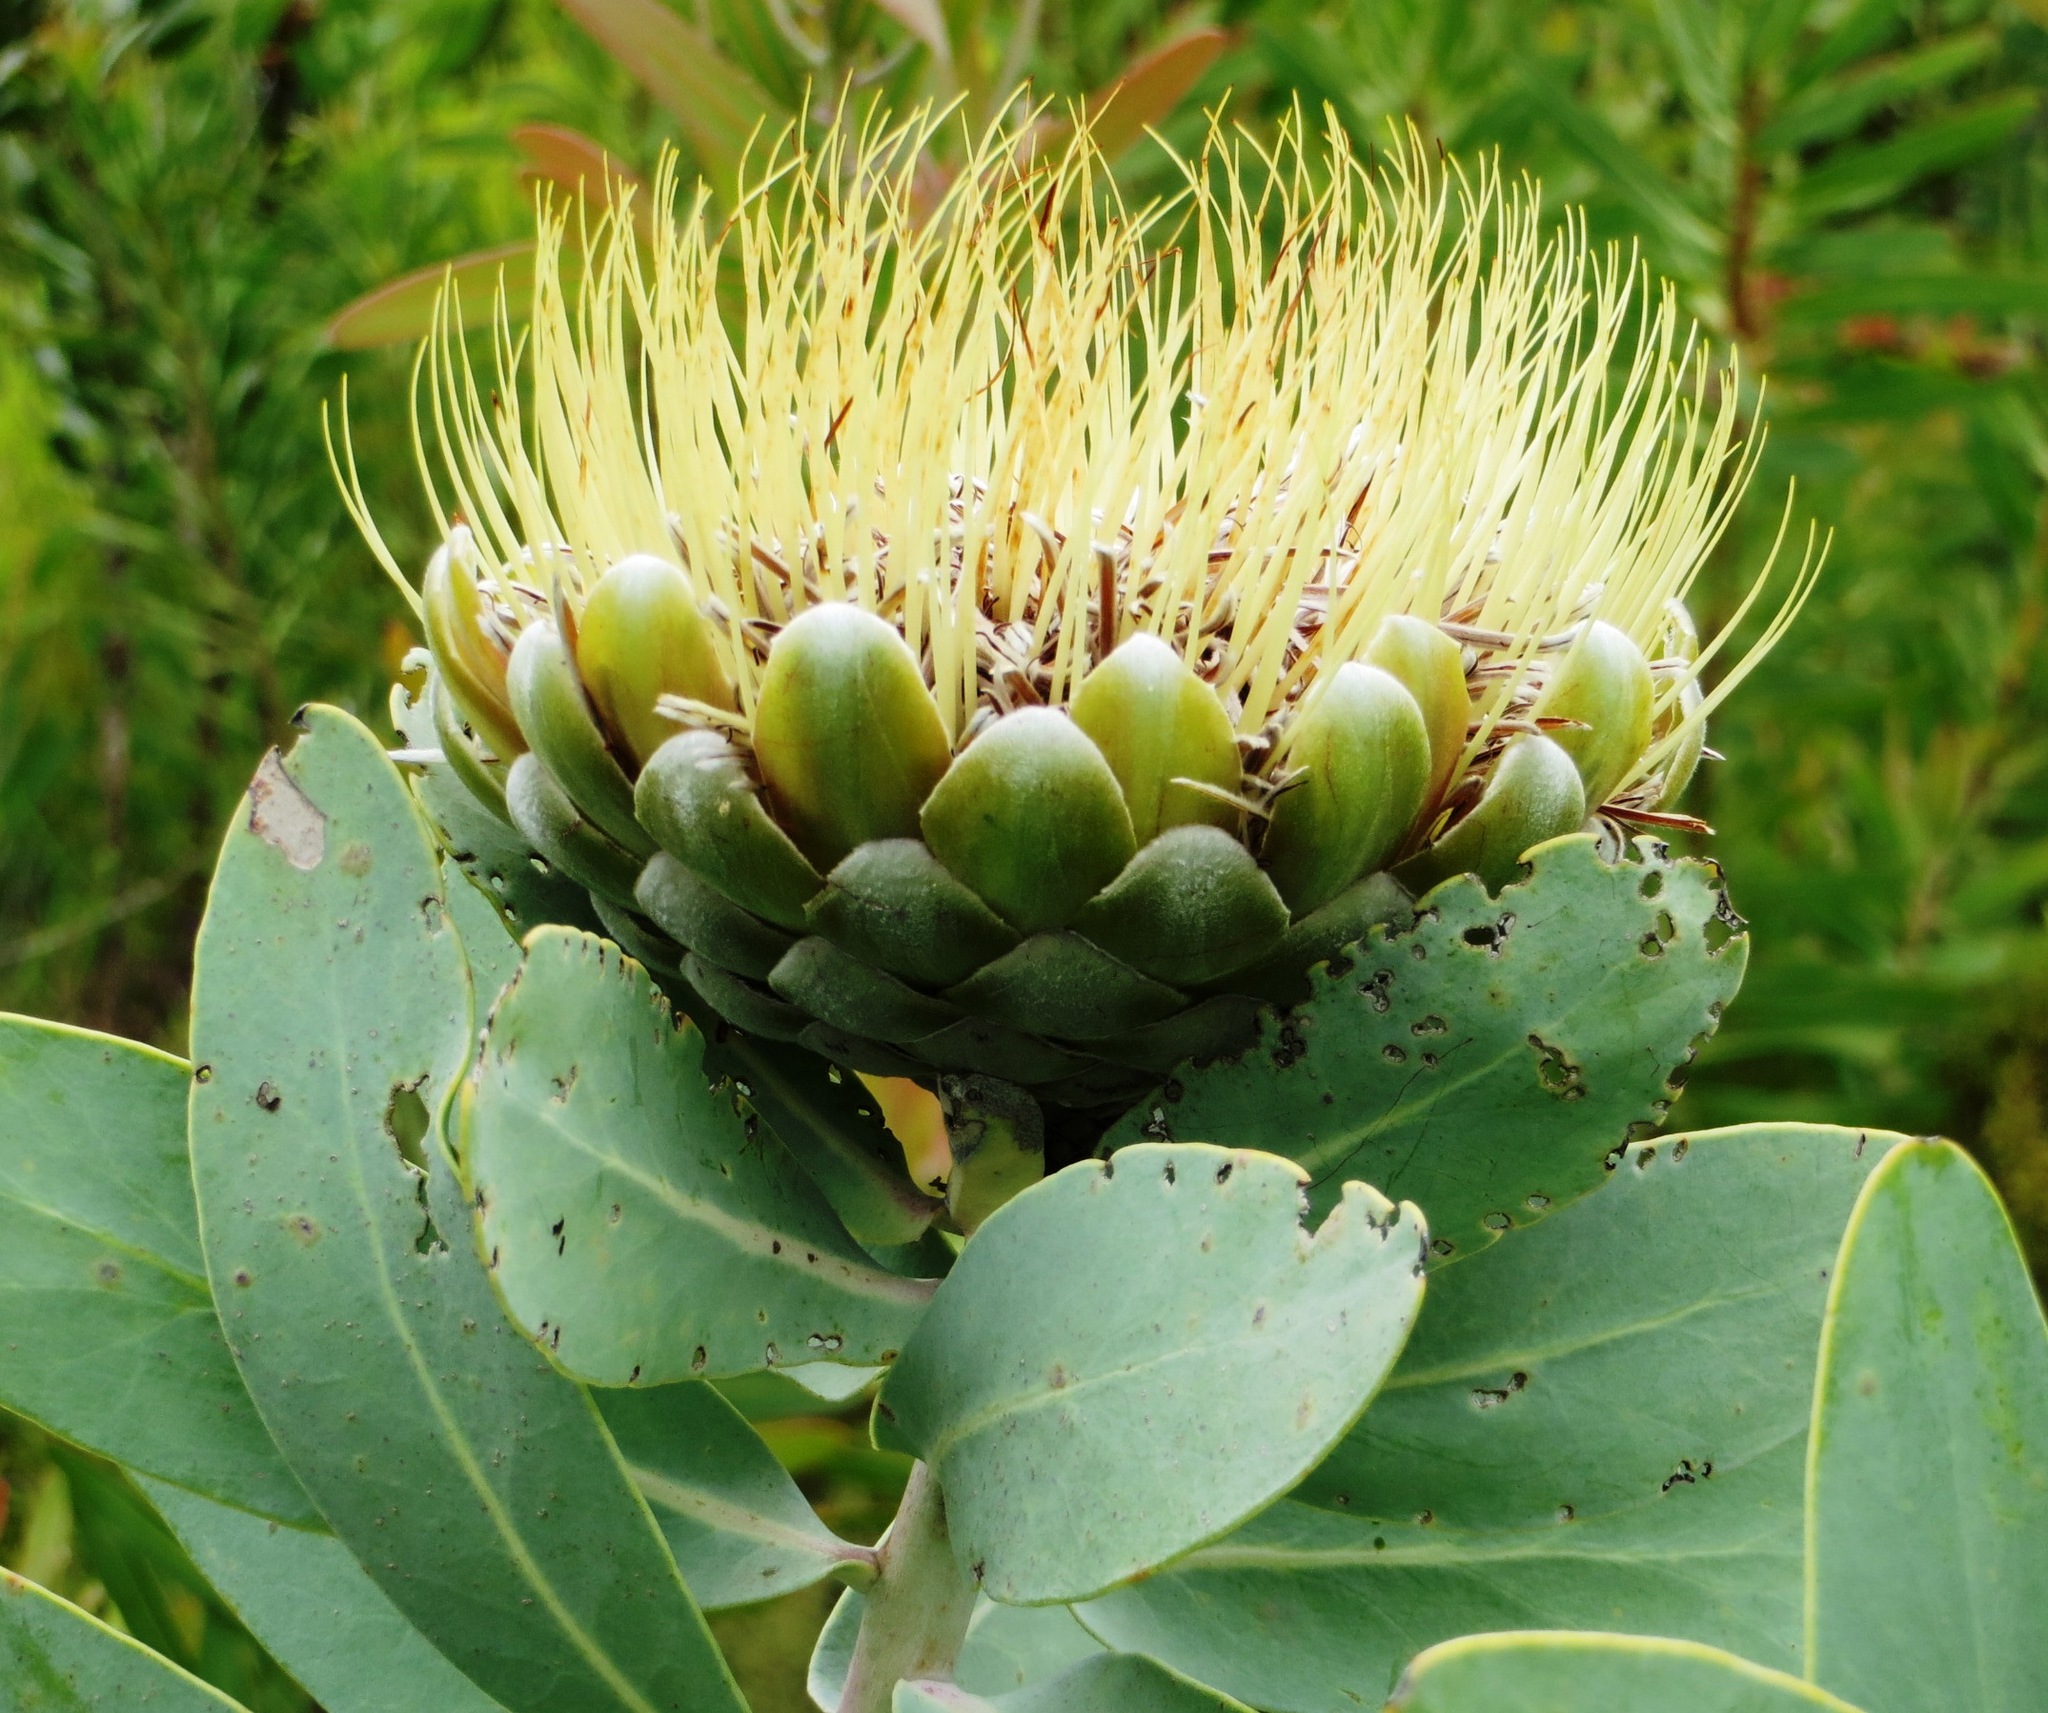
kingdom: Plantae
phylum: Tracheophyta
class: Magnoliopsida
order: Proteales
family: Proteaceae
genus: Protea
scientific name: Protea nitida
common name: Tree protea
